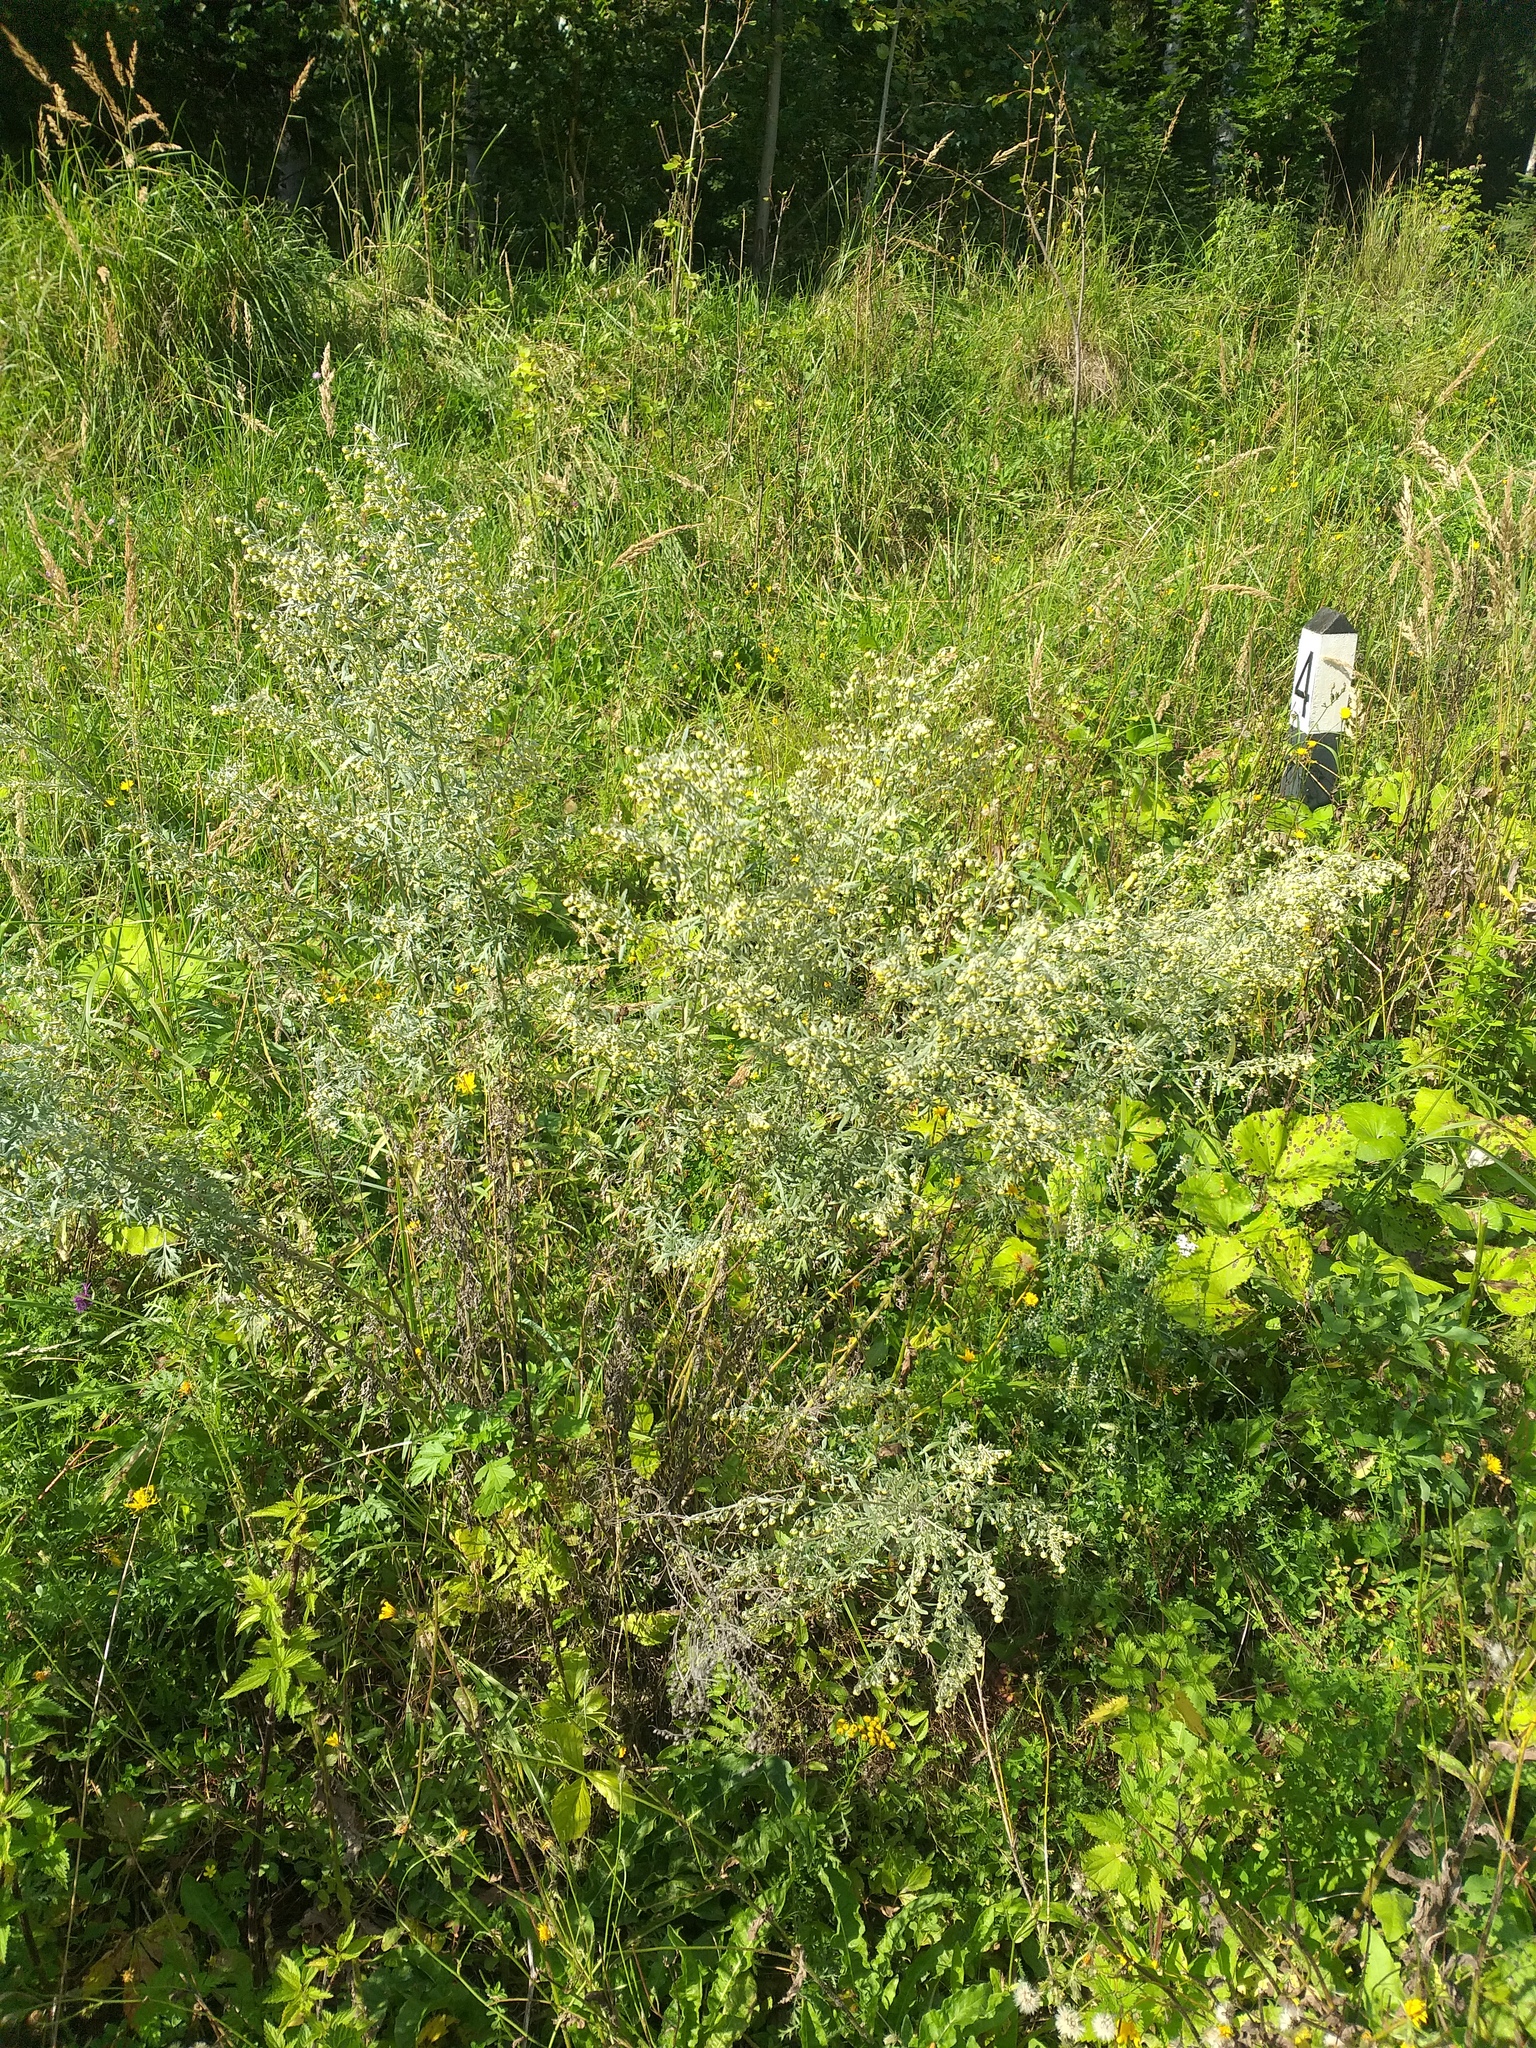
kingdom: Plantae
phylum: Tracheophyta
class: Magnoliopsida
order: Asterales
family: Asteraceae
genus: Artemisia
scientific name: Artemisia absinthium
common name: Wormwood
